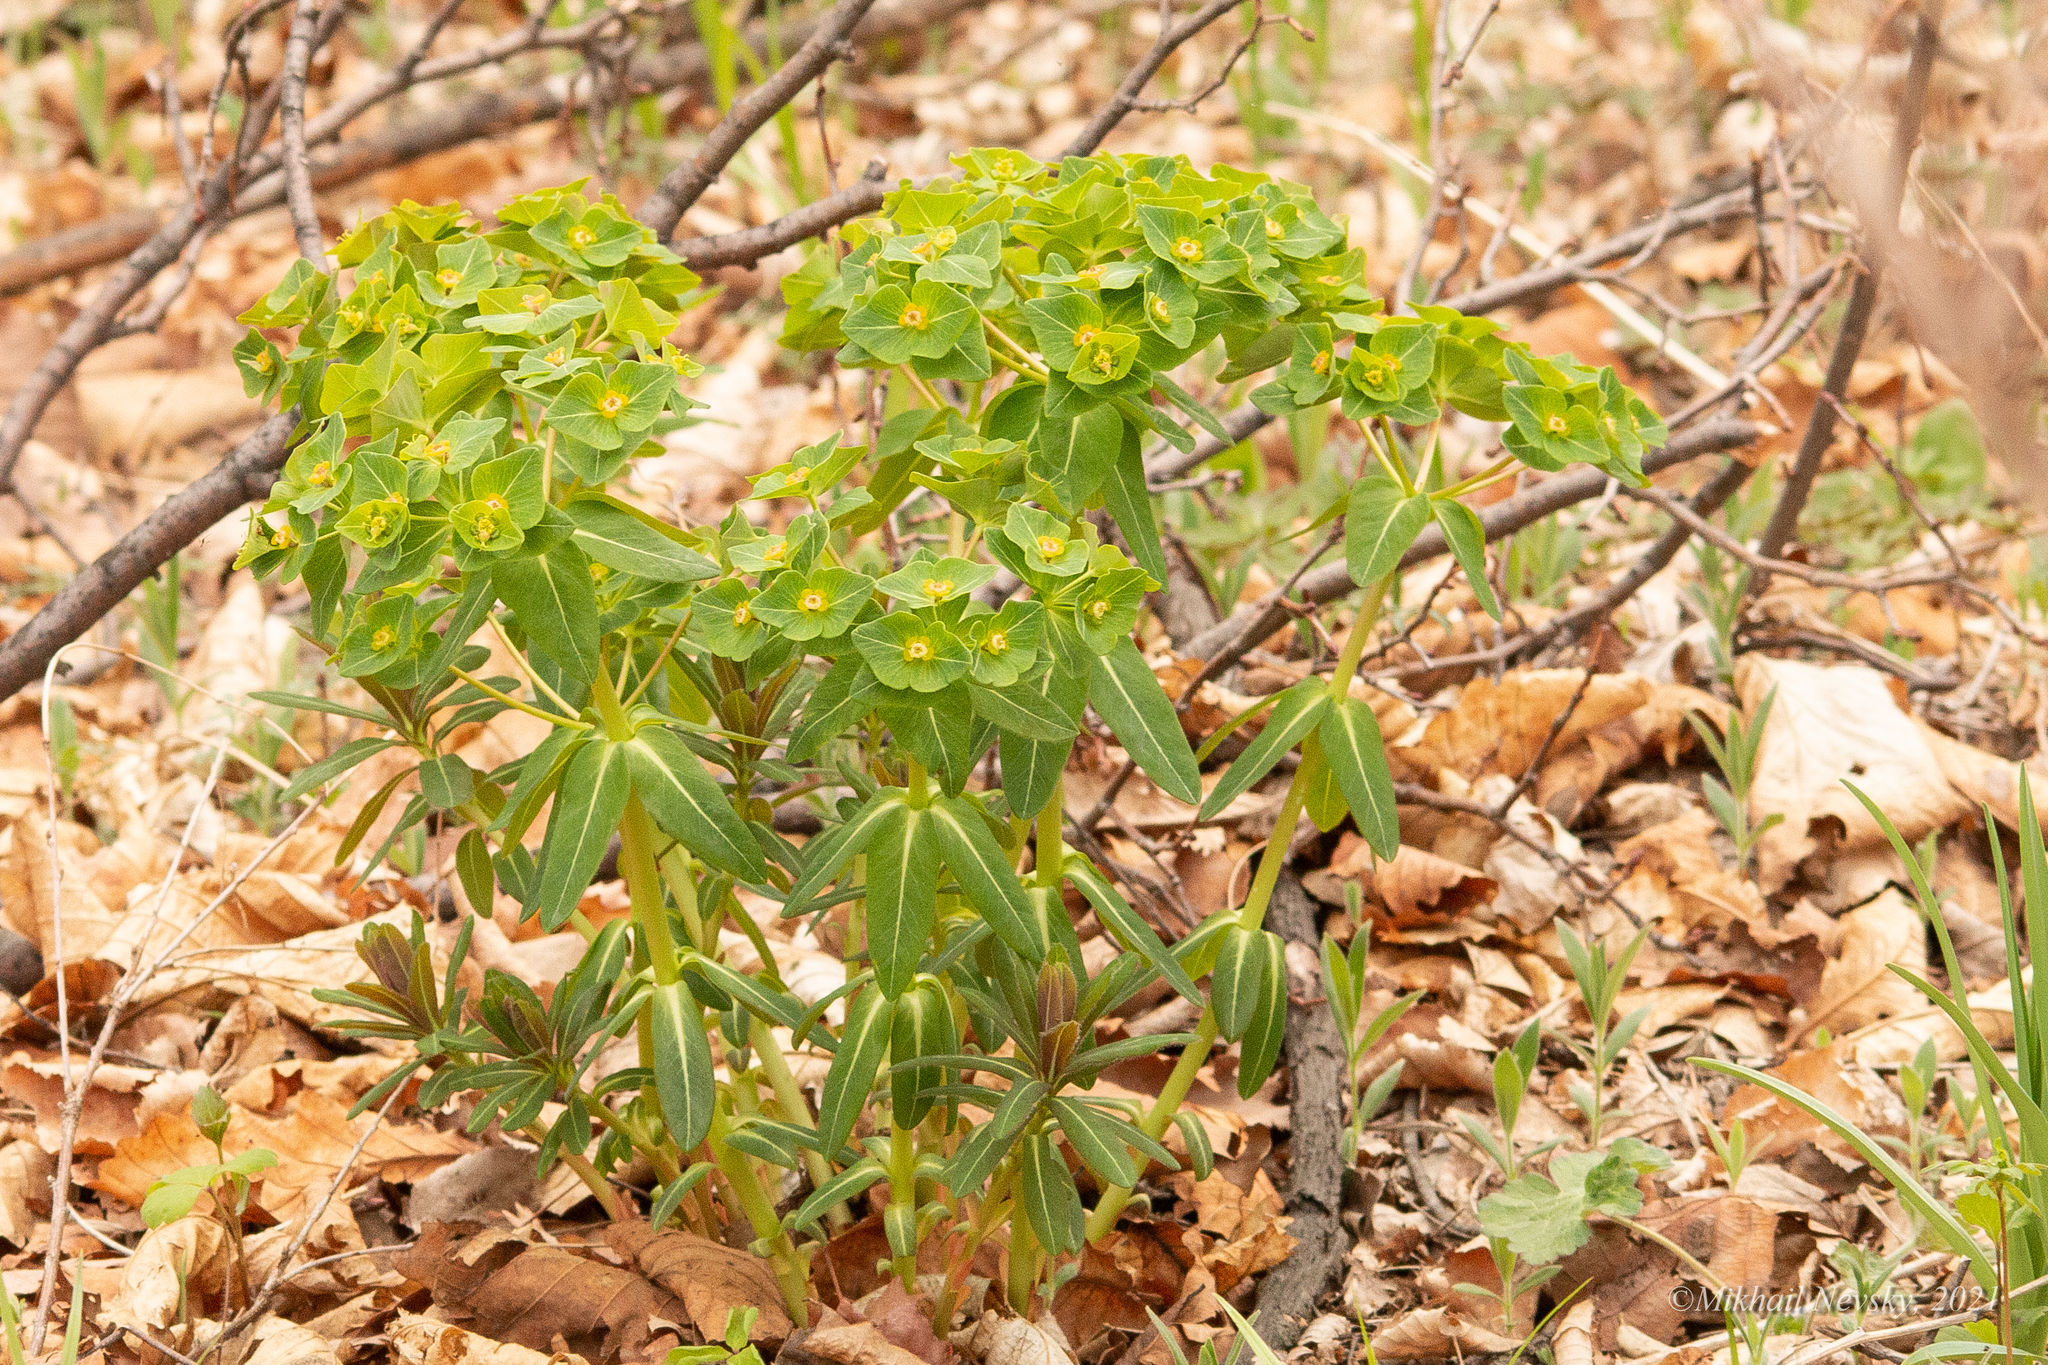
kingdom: Plantae
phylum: Tracheophyta
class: Magnoliopsida
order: Malpighiales
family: Euphorbiaceae
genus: Euphorbia
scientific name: Euphorbia hylonoma
